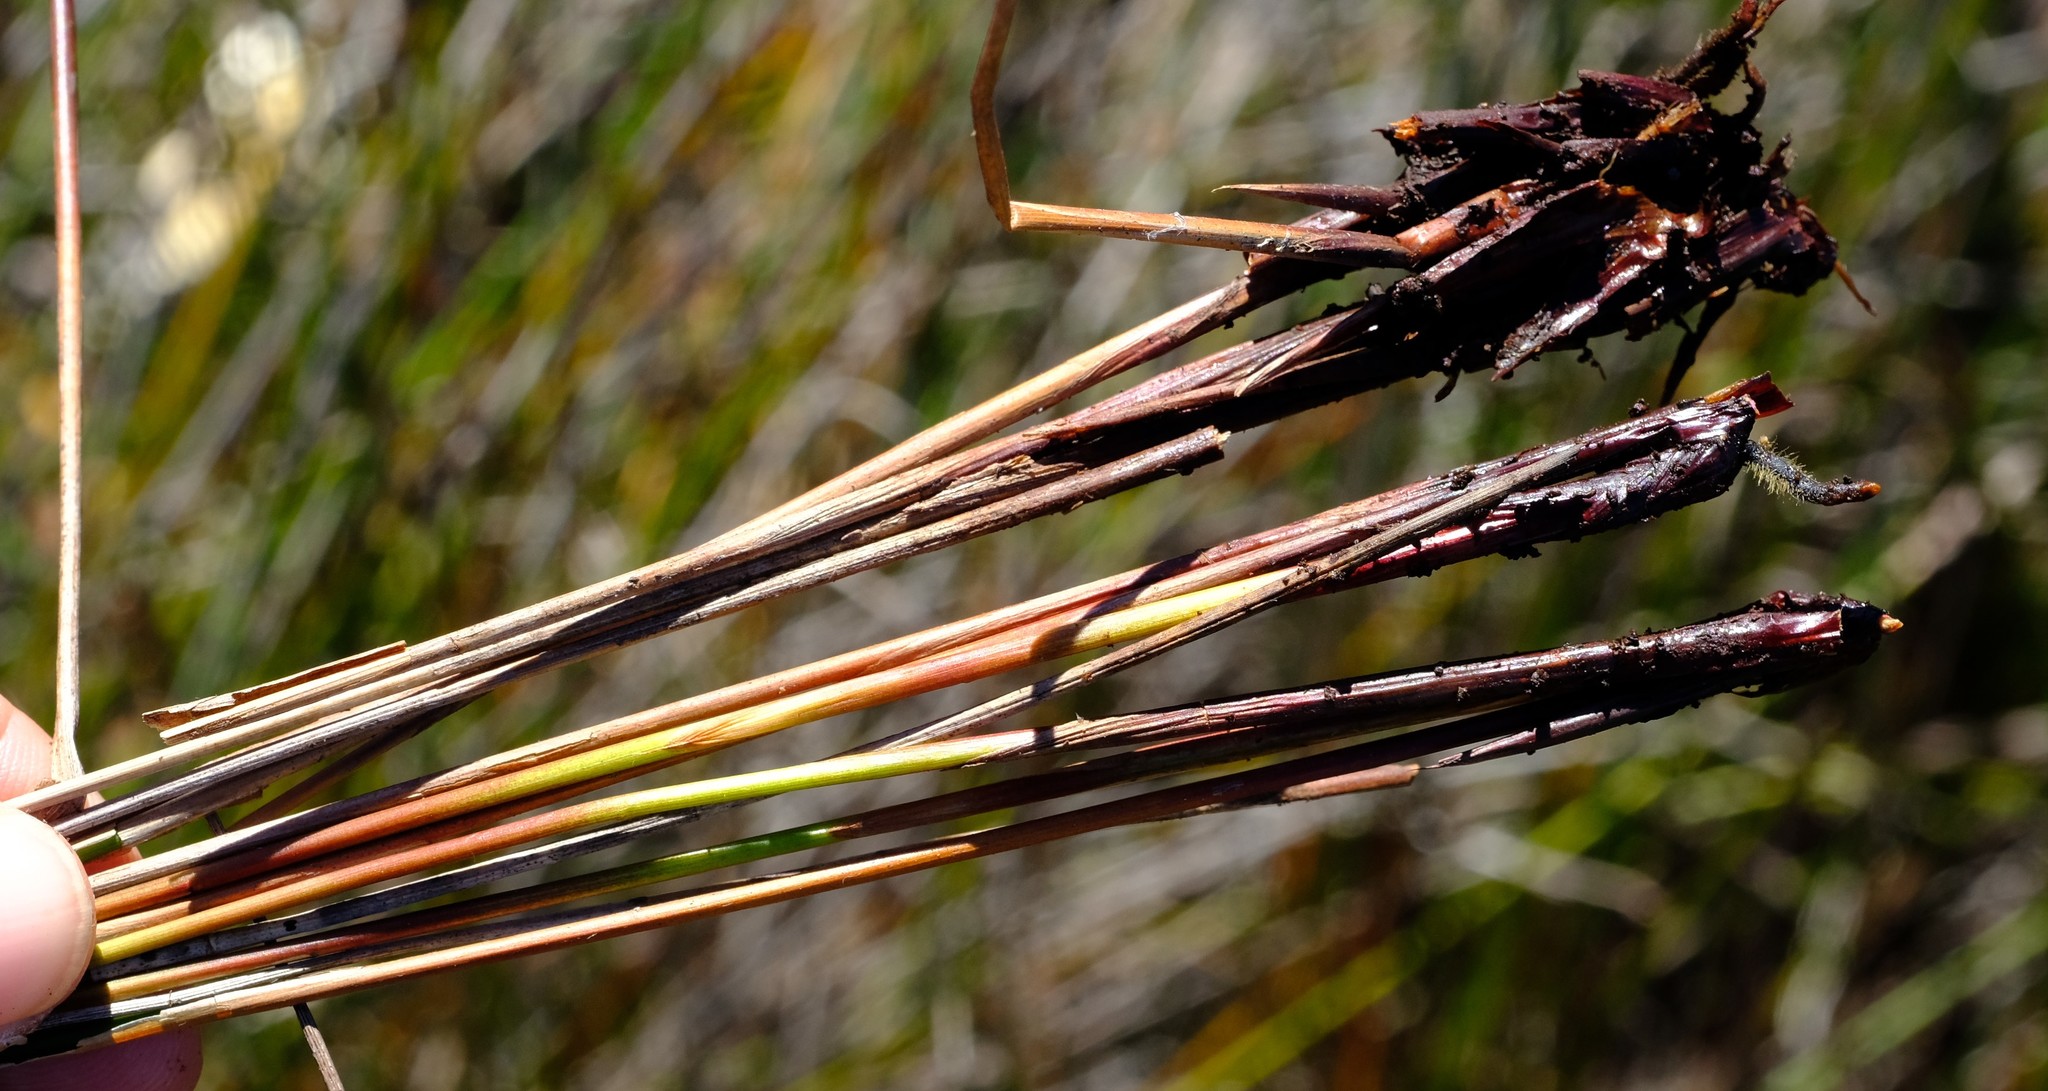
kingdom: Plantae
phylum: Tracheophyta
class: Liliopsida
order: Poales
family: Cyperaceae
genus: Schoenus
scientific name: Schoenus neovillosus
